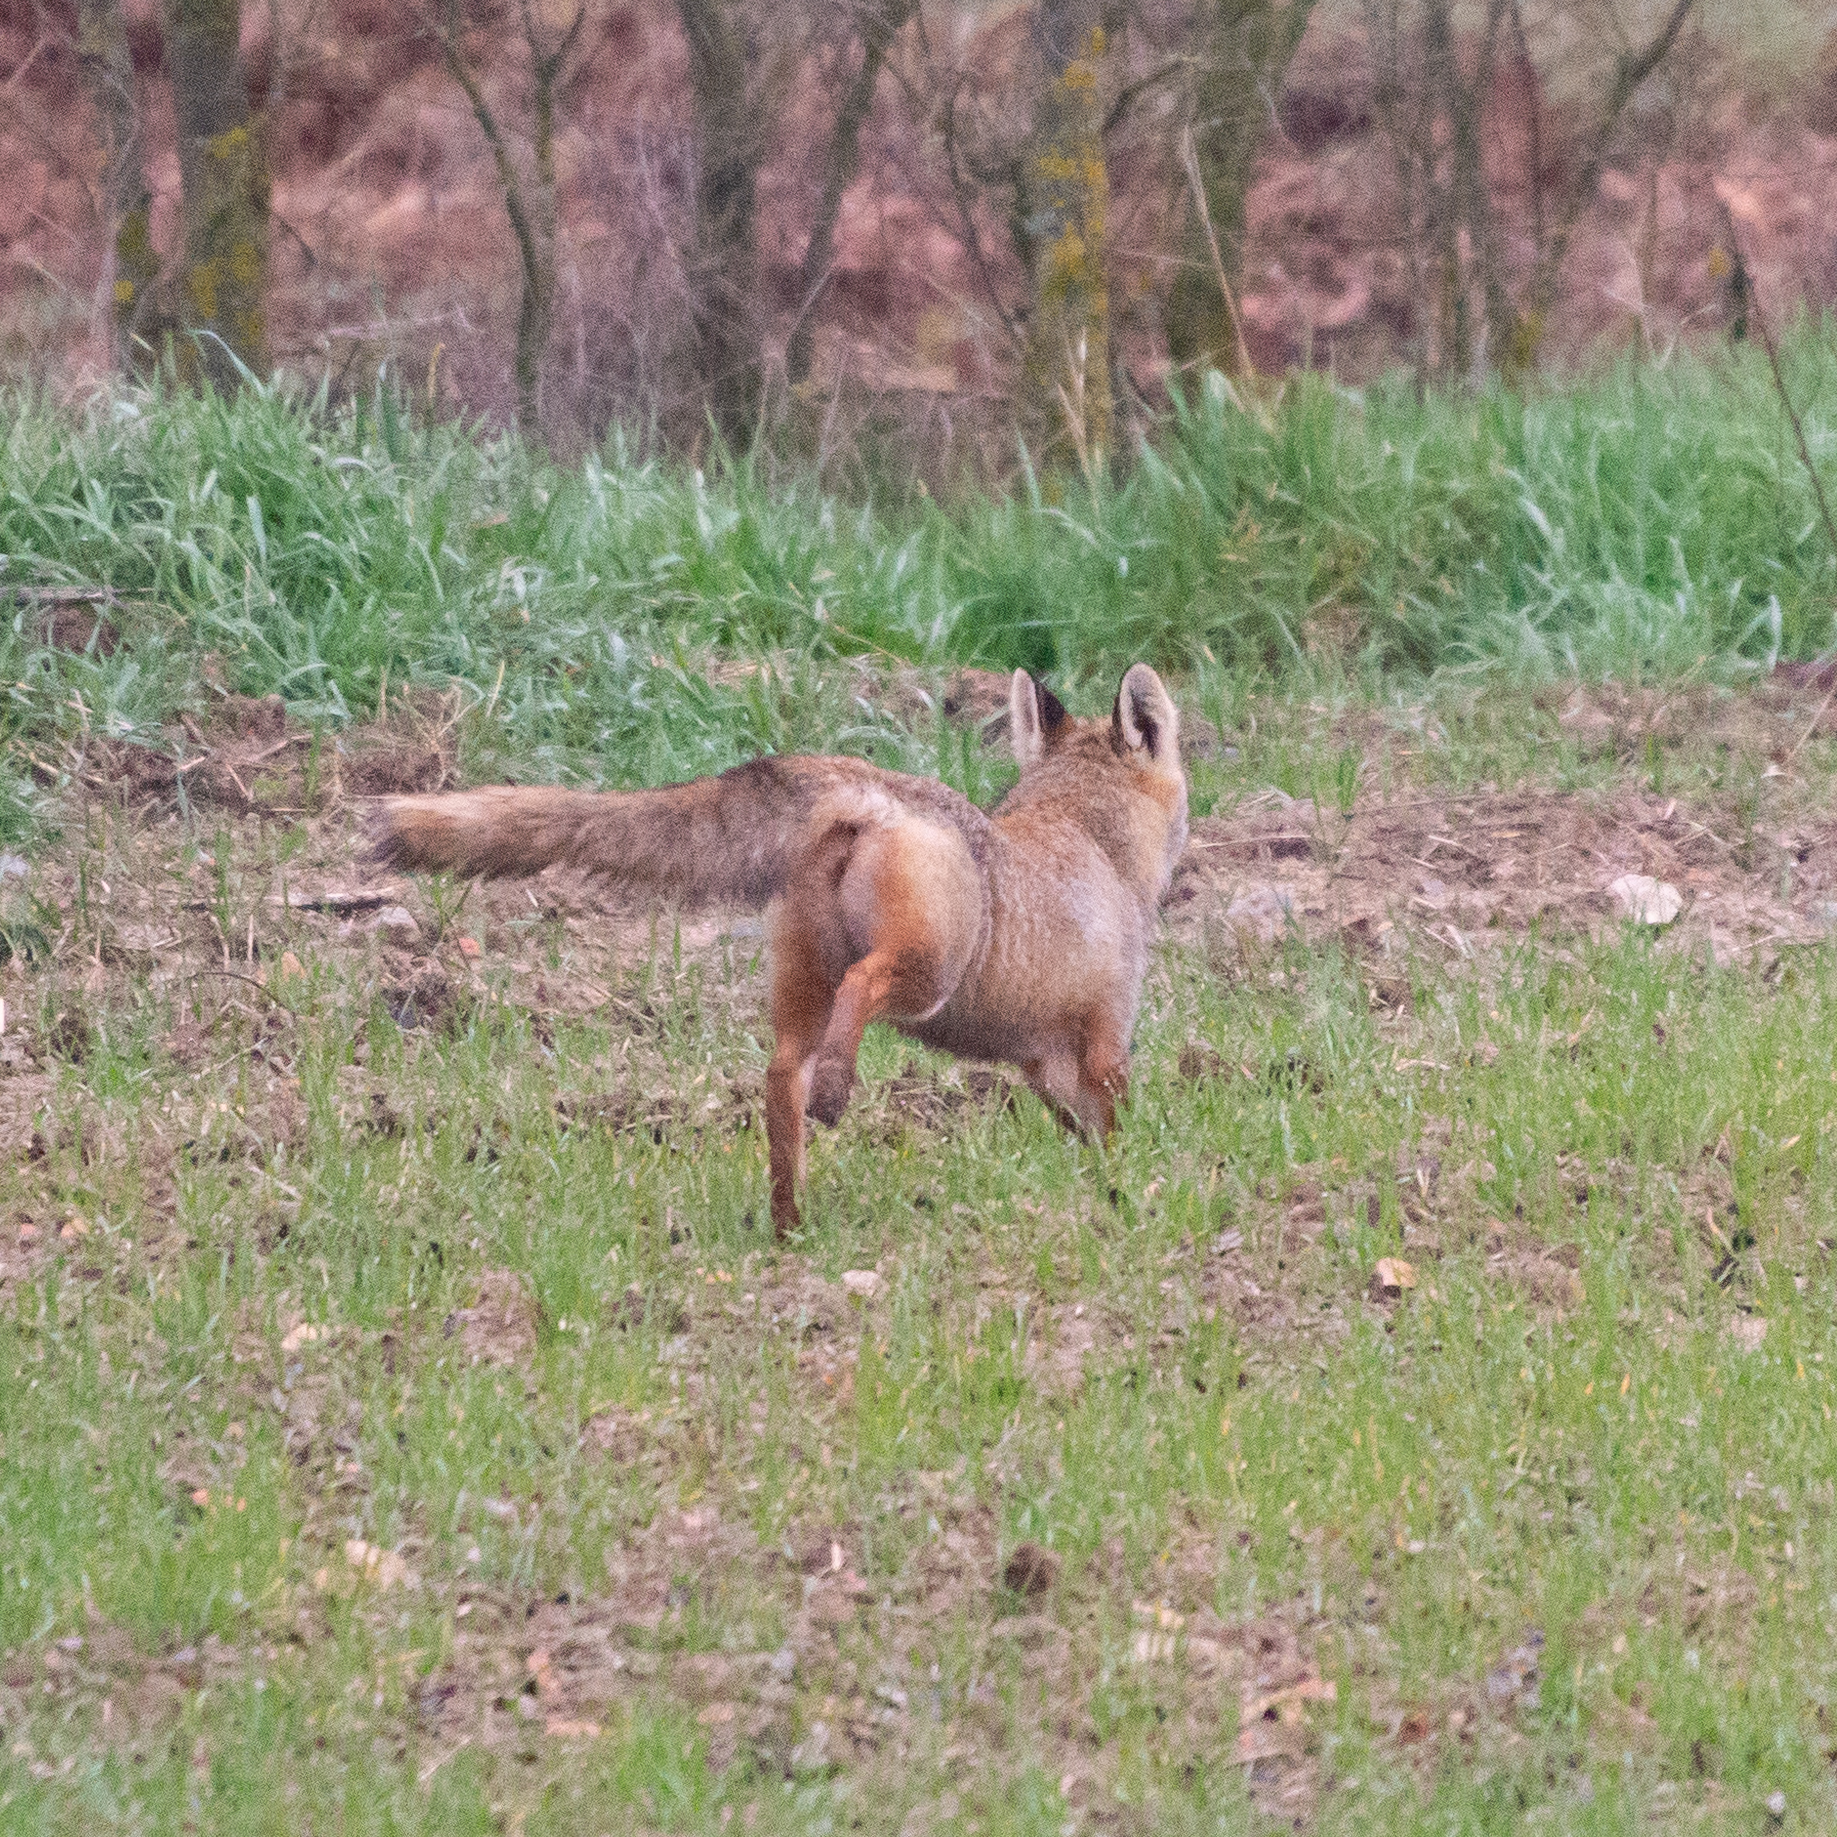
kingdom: Animalia
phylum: Chordata
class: Mammalia
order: Carnivora
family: Canidae
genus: Vulpes
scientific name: Vulpes vulpes
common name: Red fox
